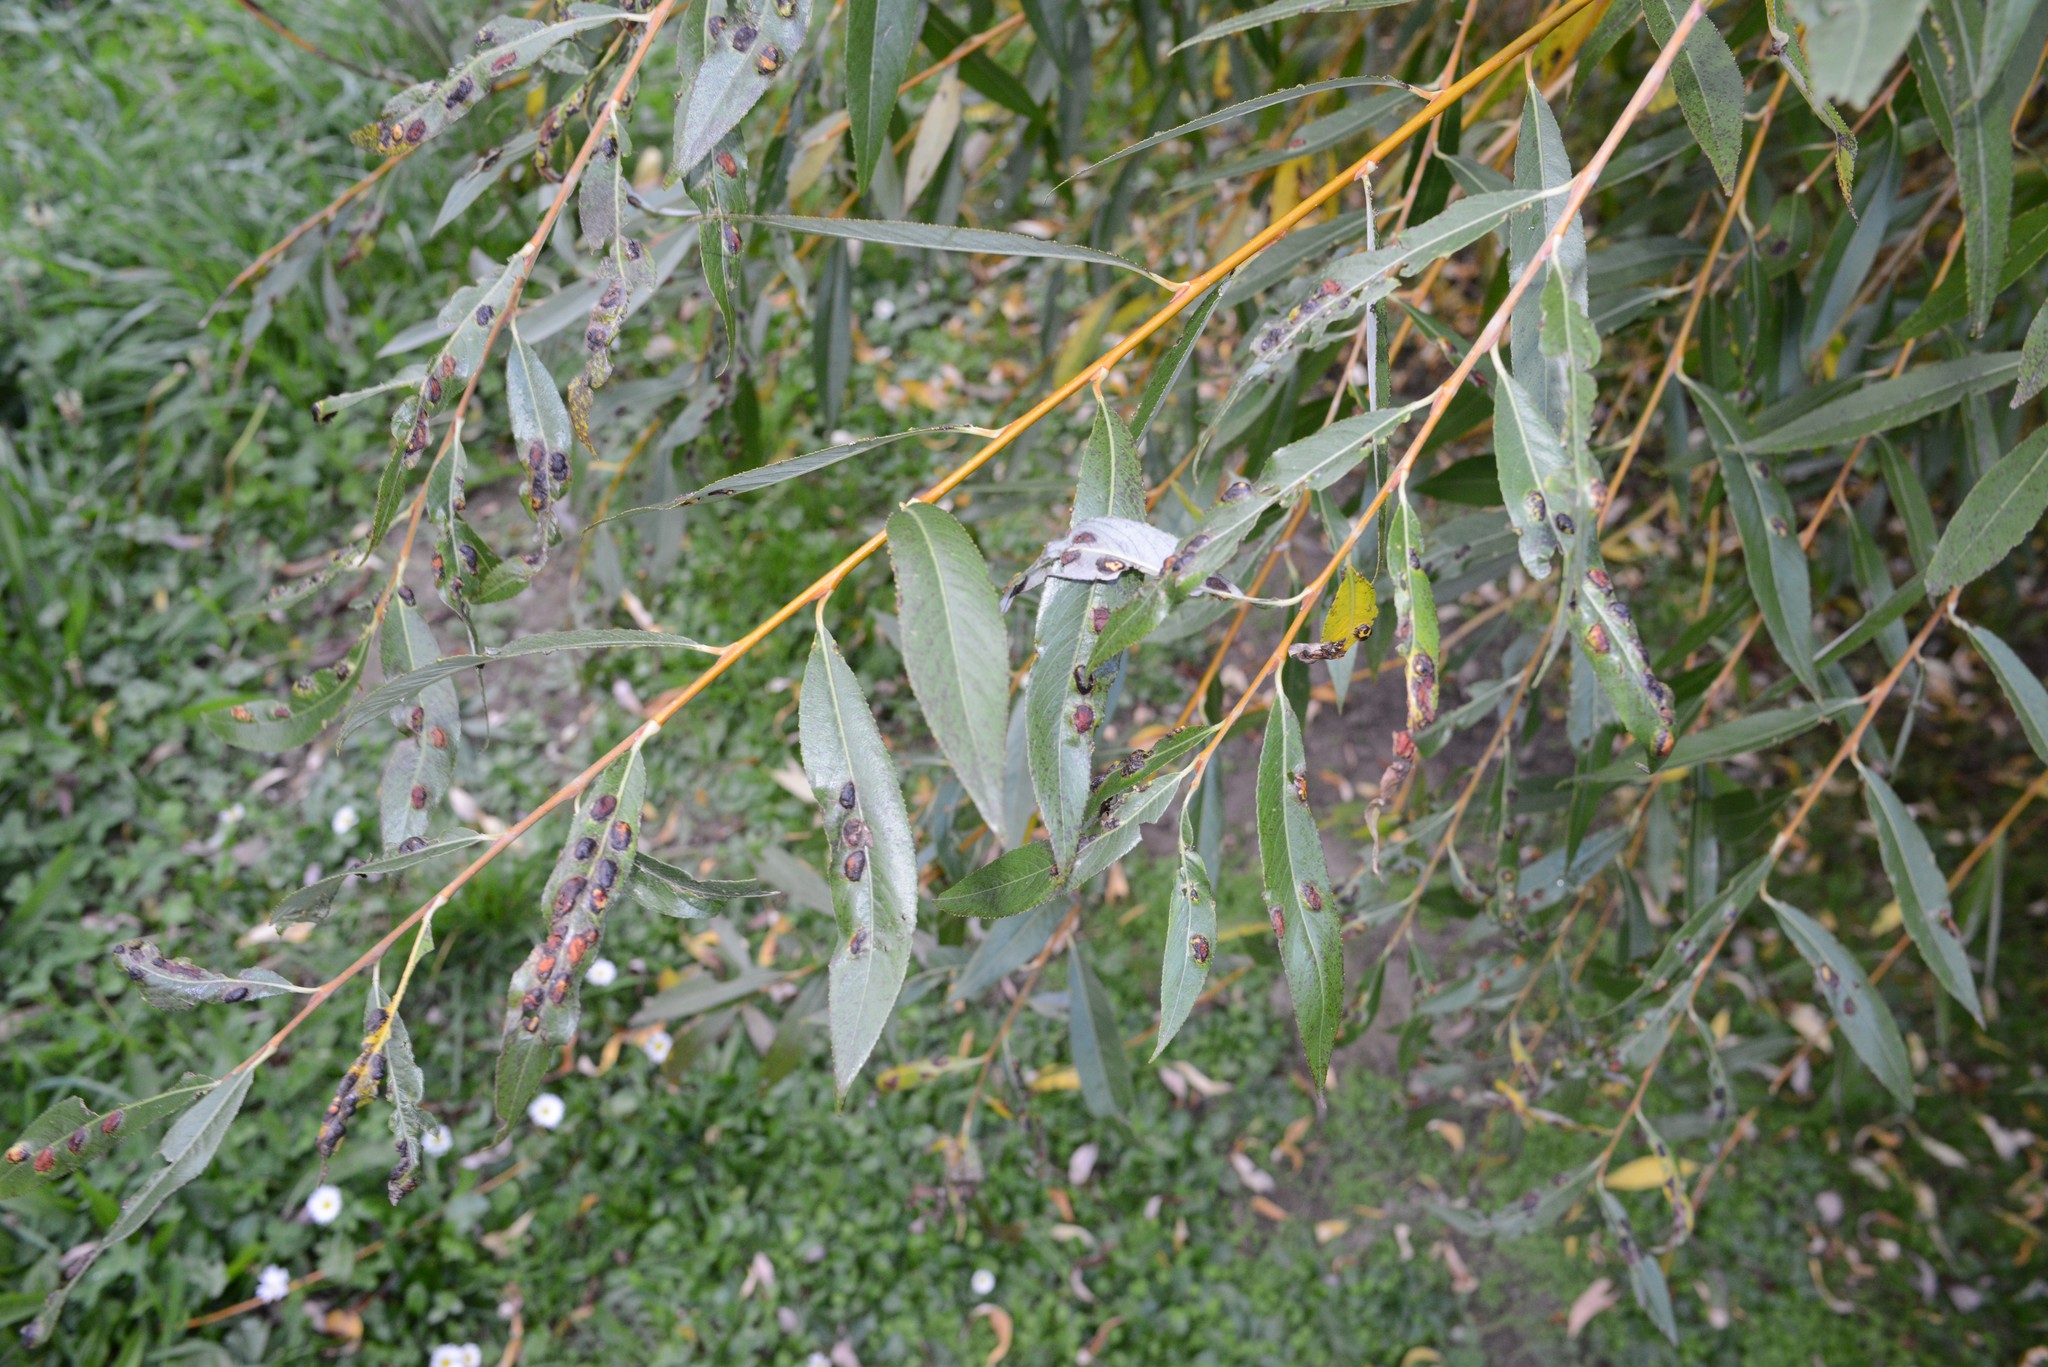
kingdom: Plantae
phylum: Tracheophyta
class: Magnoliopsida
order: Malpighiales
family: Salicaceae
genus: Salix
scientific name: Salix fragilis
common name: Crack willow
